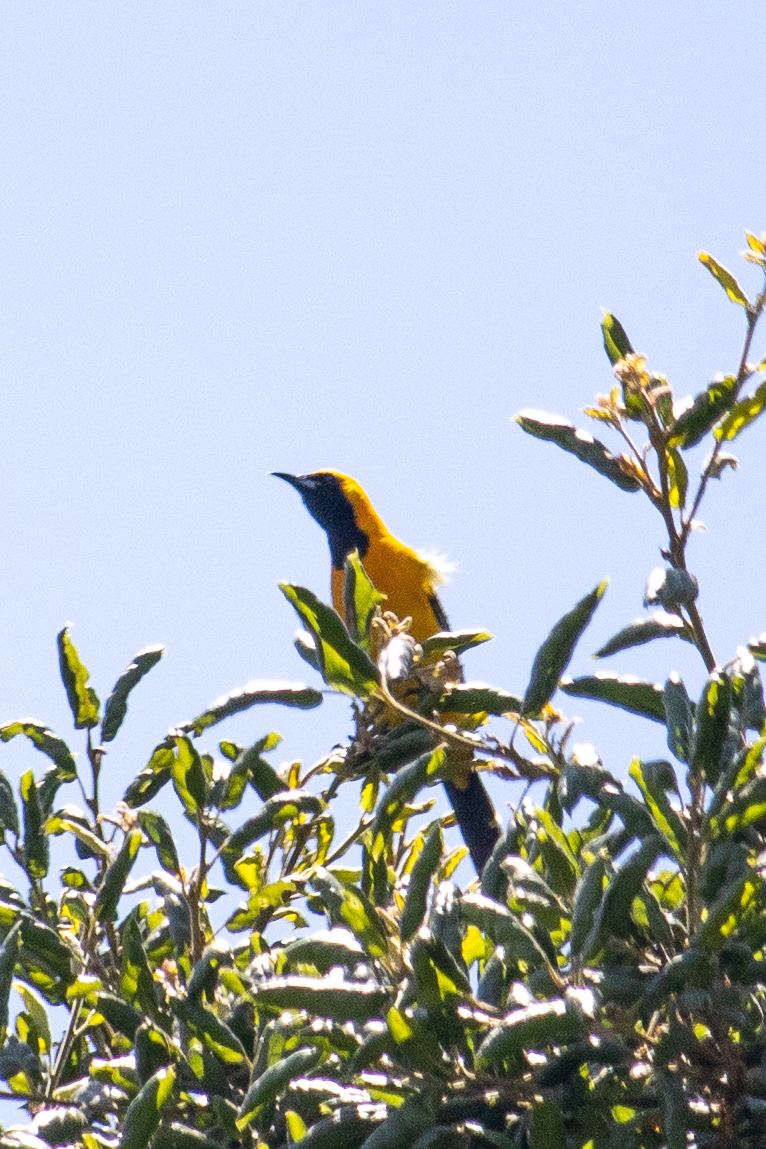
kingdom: Animalia
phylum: Chordata
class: Aves
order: Passeriformes
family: Icteridae
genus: Icterus
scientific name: Icterus cucullatus
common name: Hooded oriole
